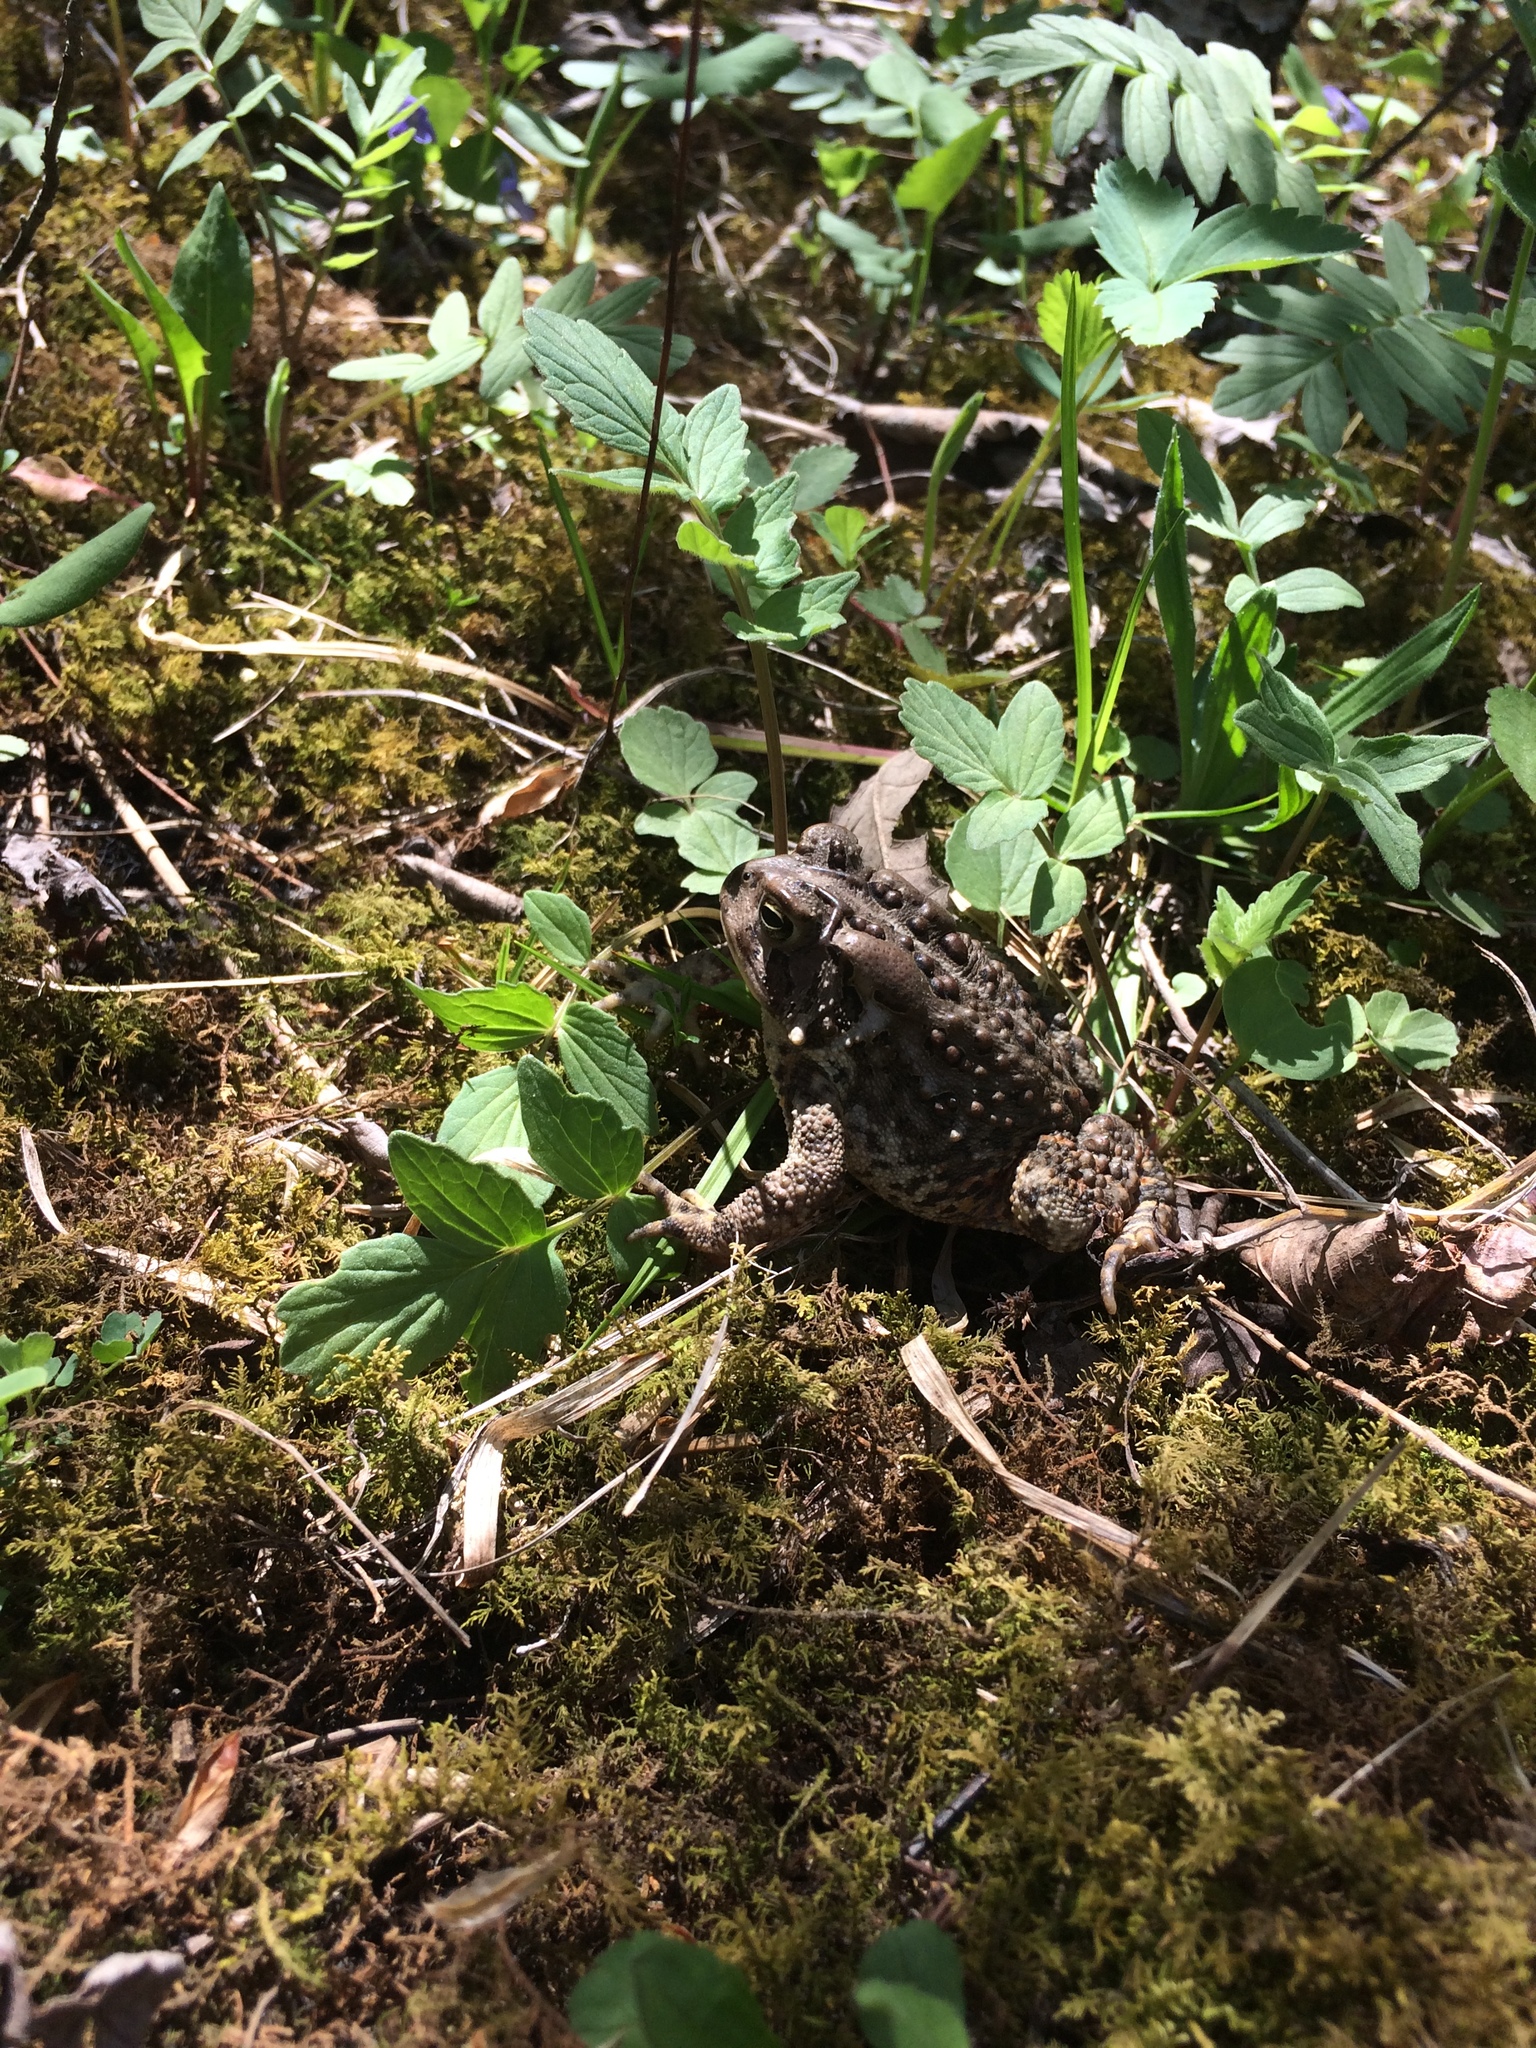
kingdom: Animalia
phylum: Chordata
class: Amphibia
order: Anura
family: Bufonidae
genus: Anaxyrus
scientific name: Anaxyrus americanus
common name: American toad
